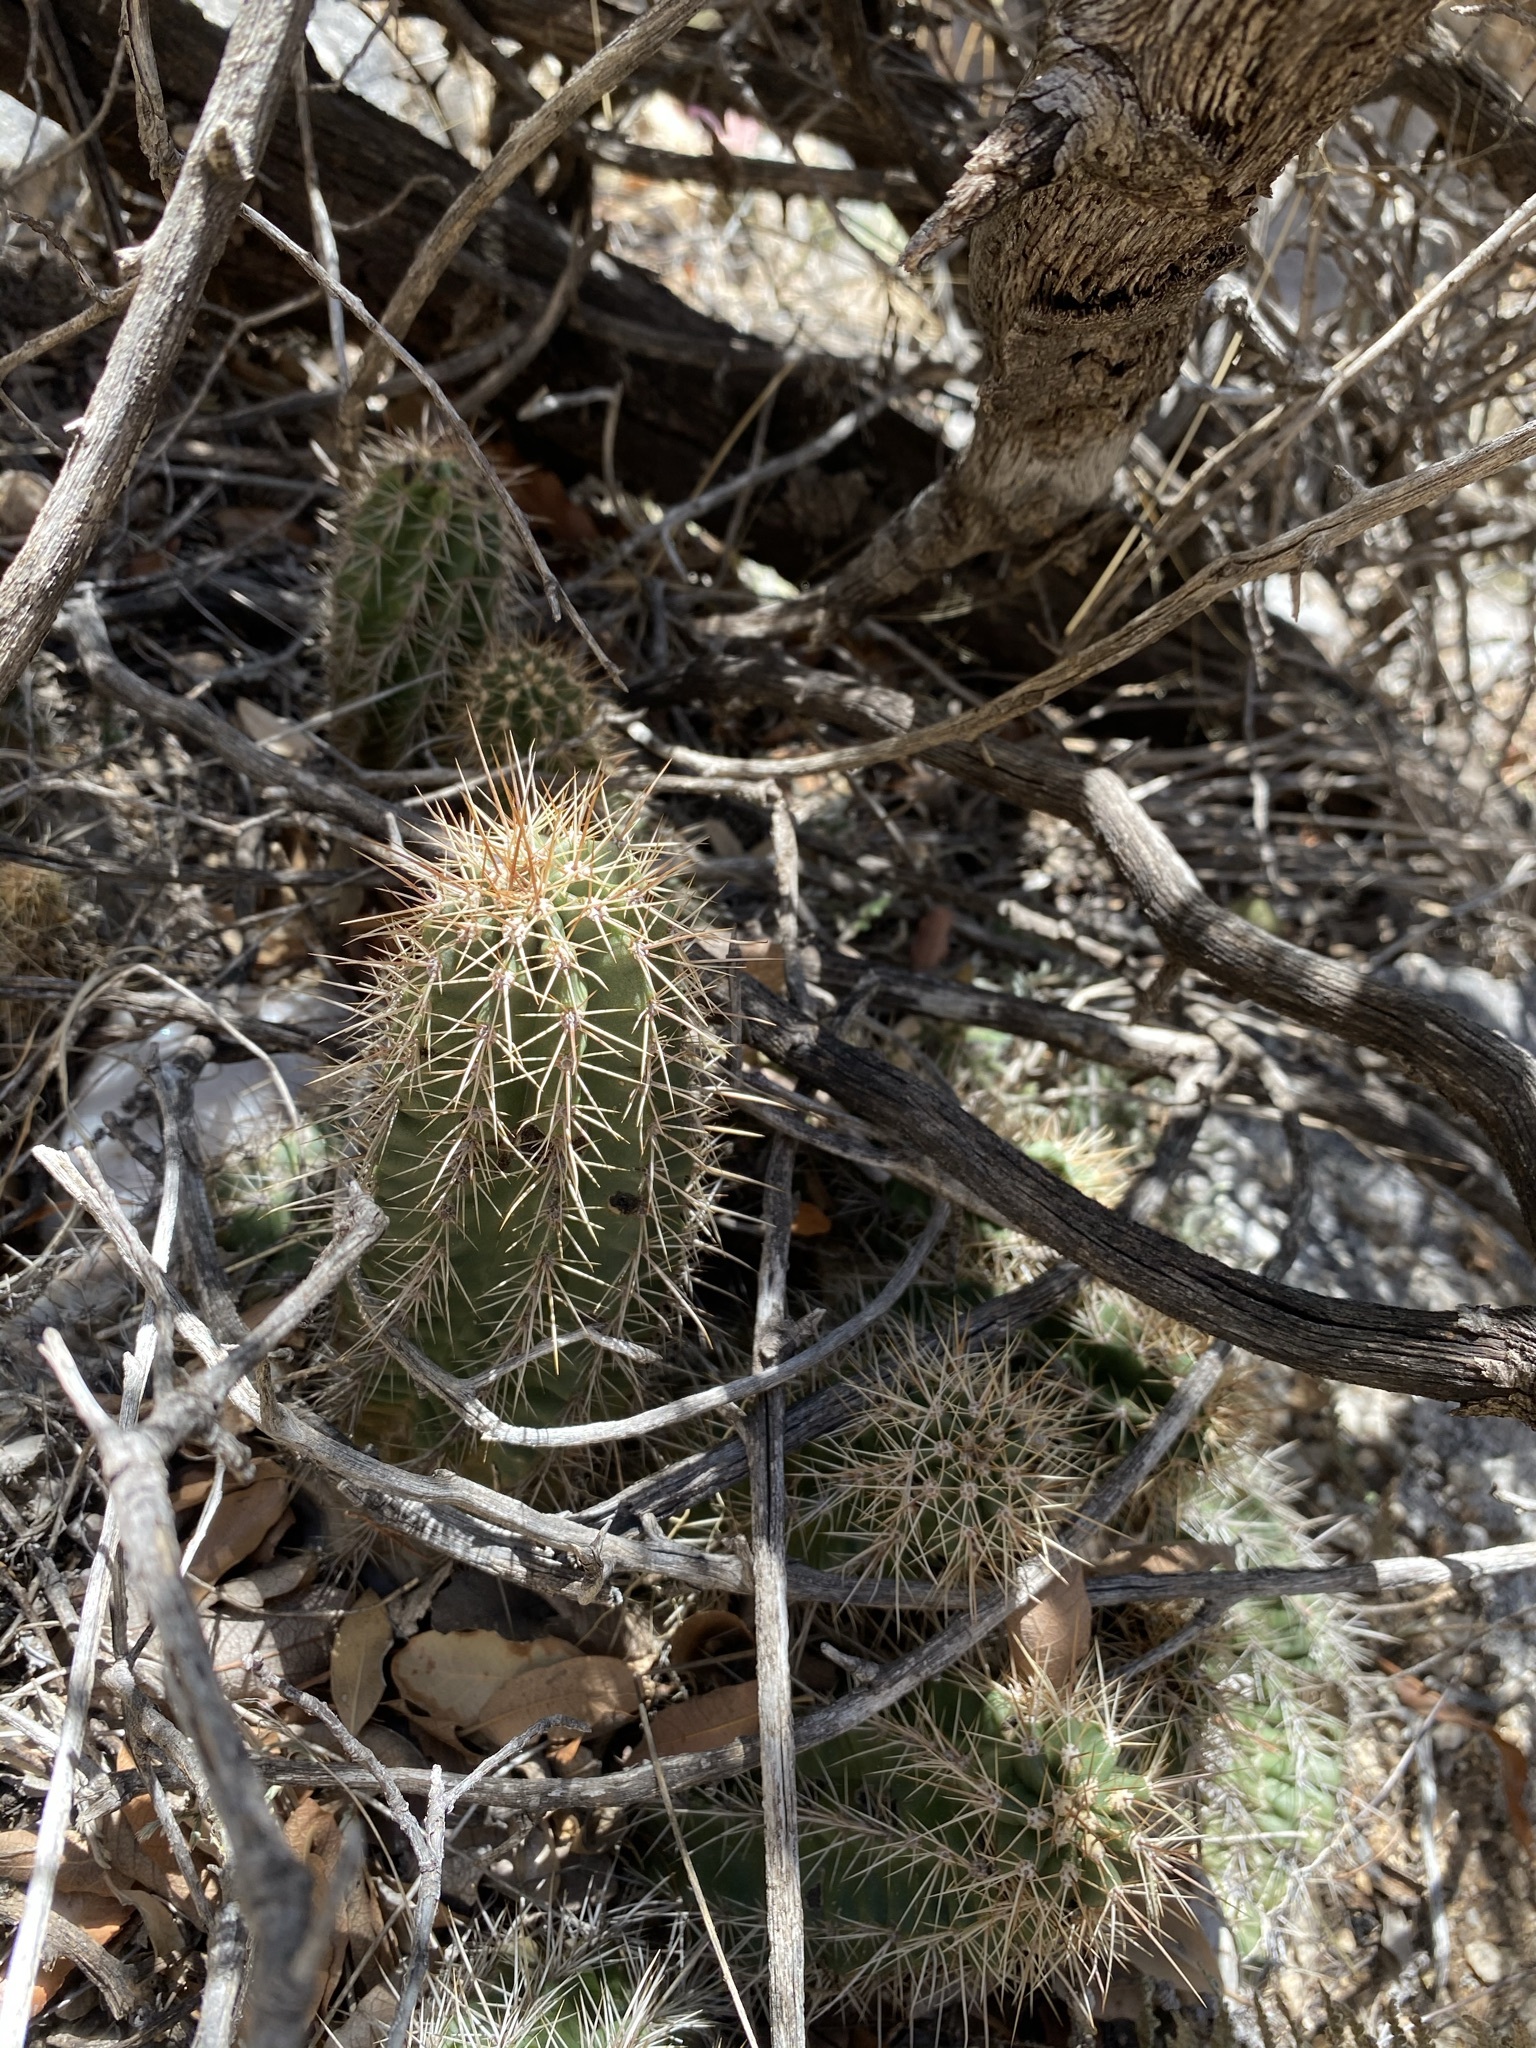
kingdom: Plantae
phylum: Tracheophyta
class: Magnoliopsida
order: Caryophyllales
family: Cactaceae
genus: Echinocereus
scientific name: Echinocereus coccineus
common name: Scarlet hedgehog cactus
